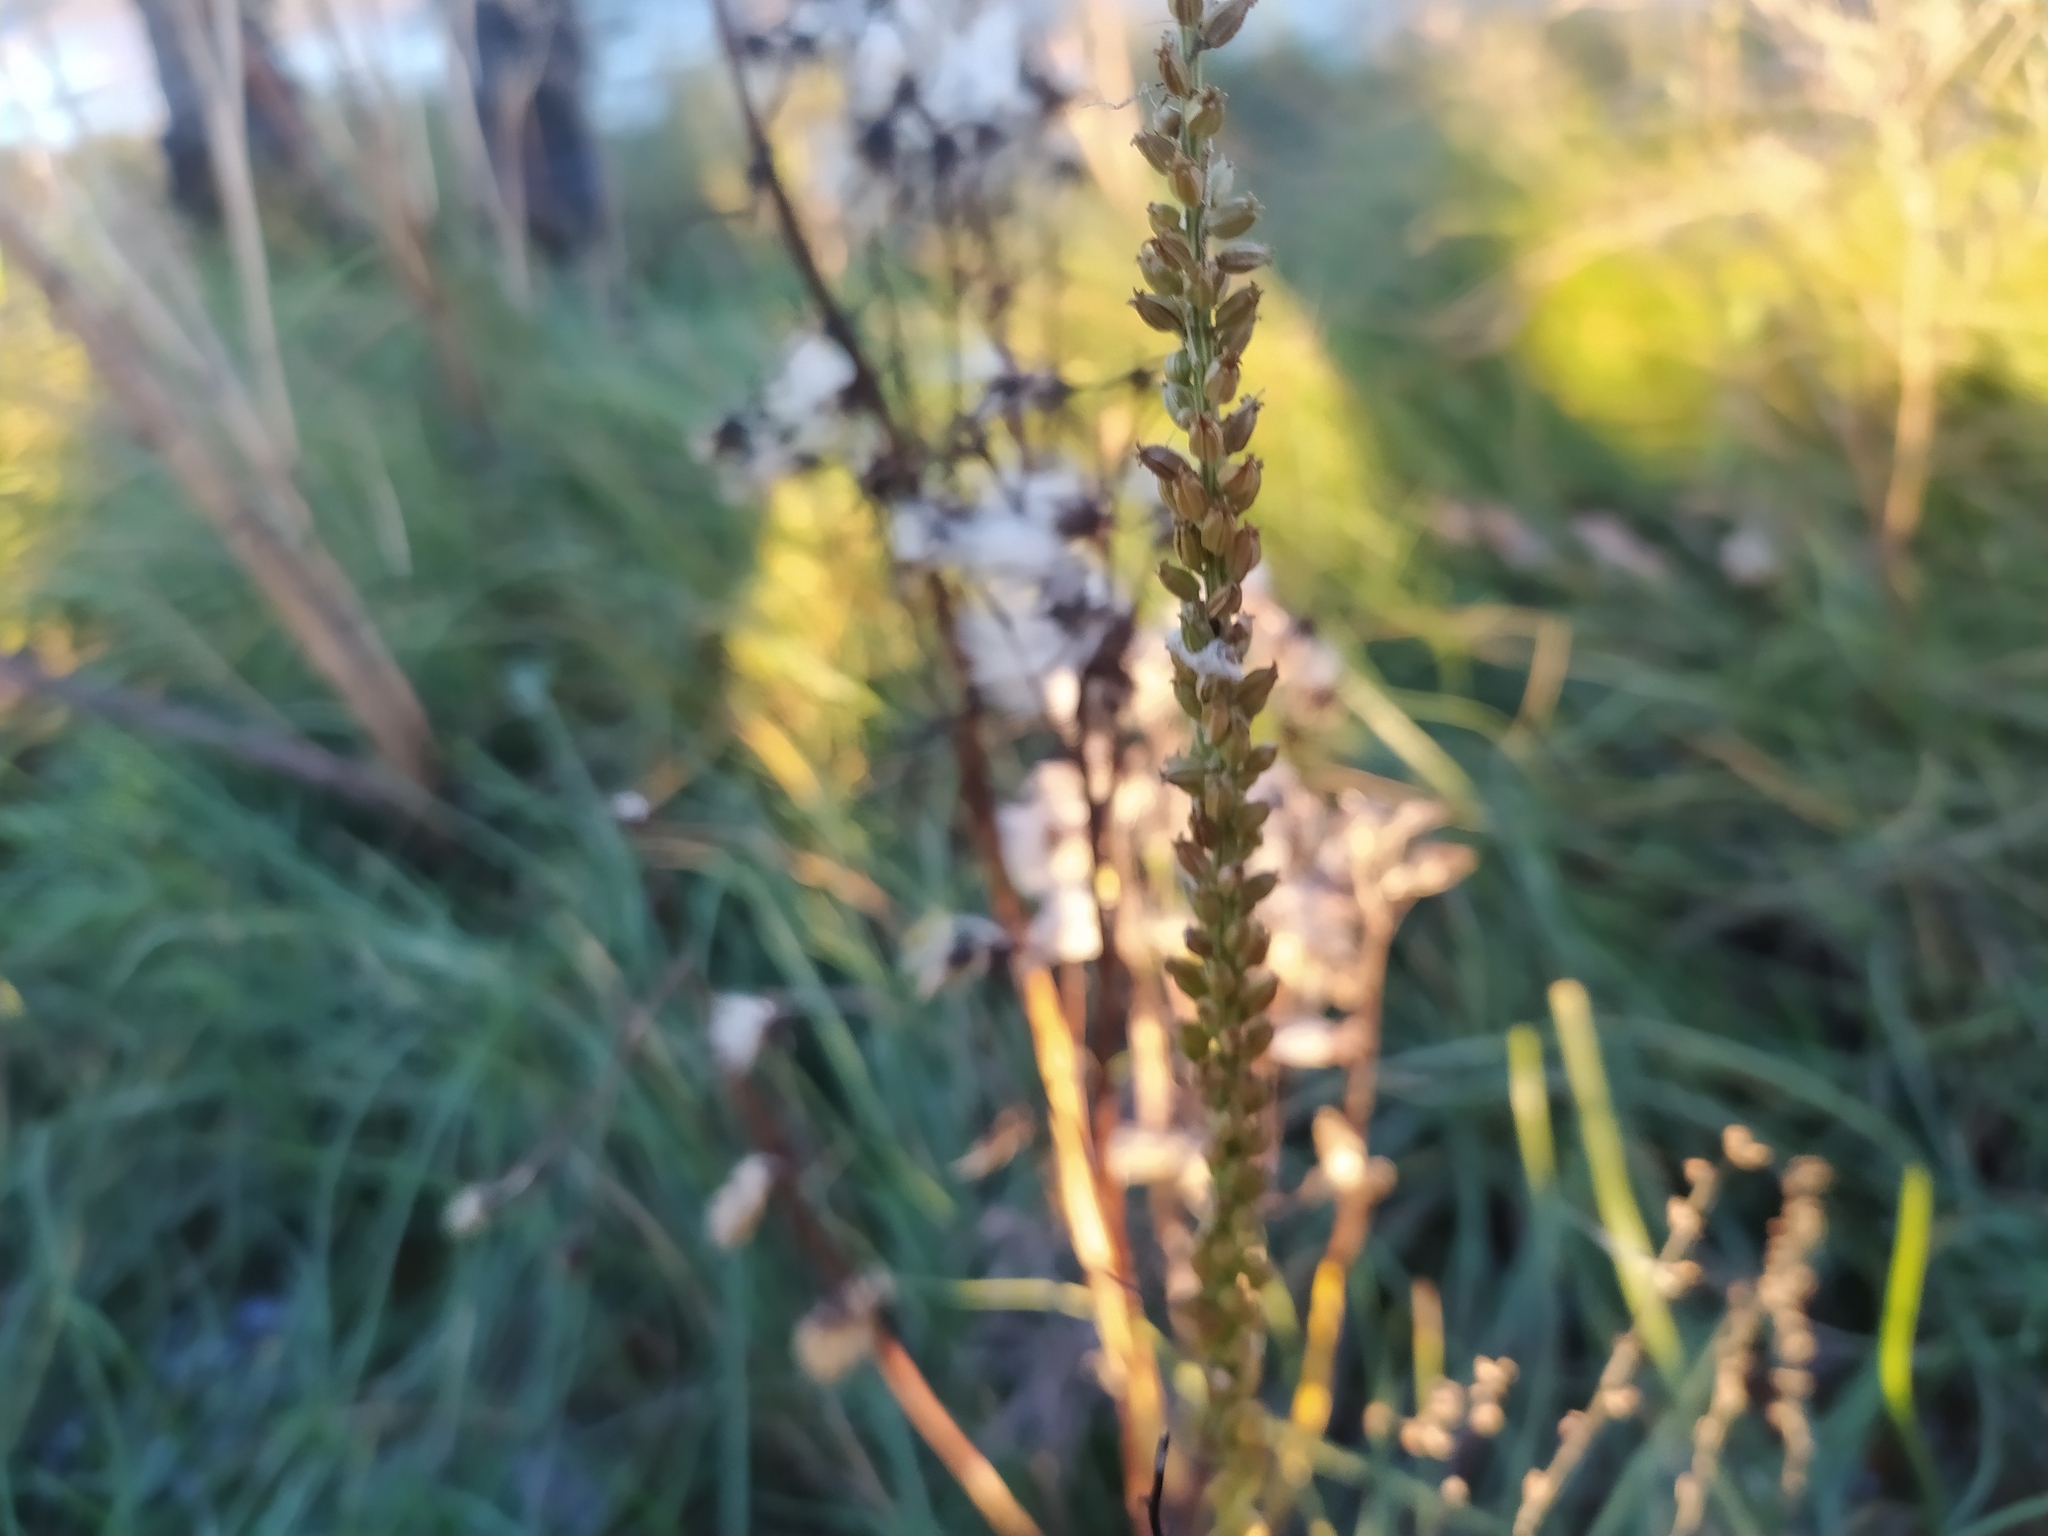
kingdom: Plantae
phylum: Tracheophyta
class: Liliopsida
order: Alismatales
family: Juncaginaceae
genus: Triglochin
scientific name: Triglochin maritima
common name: Sea arrowgrass
